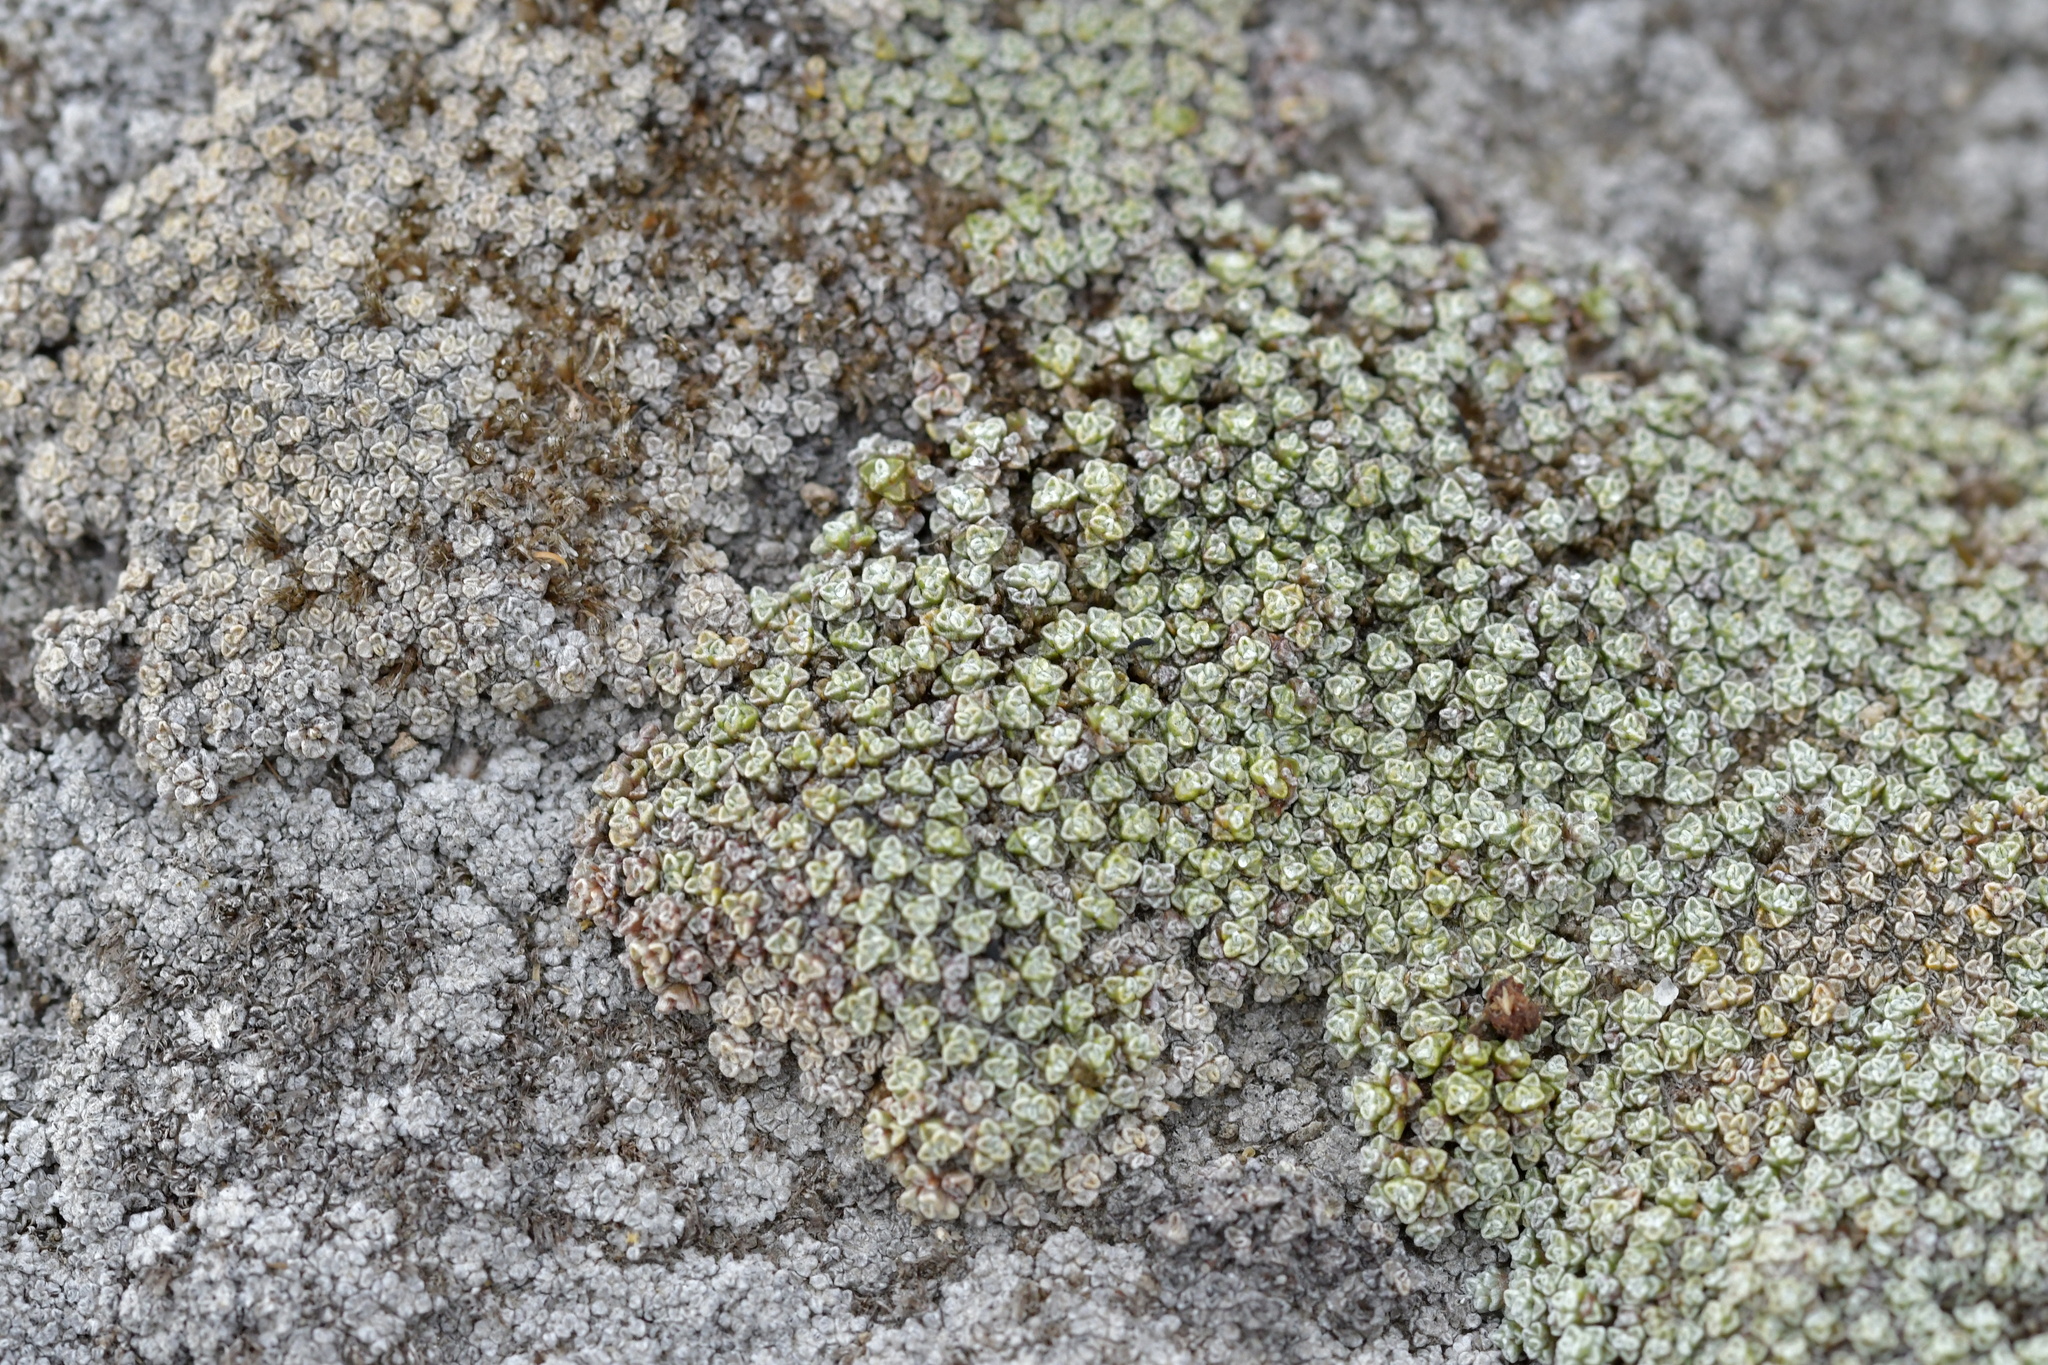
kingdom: Plantae
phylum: Tracheophyta
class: Magnoliopsida
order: Asterales
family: Asteraceae
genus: Raoulia
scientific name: Raoulia australis
